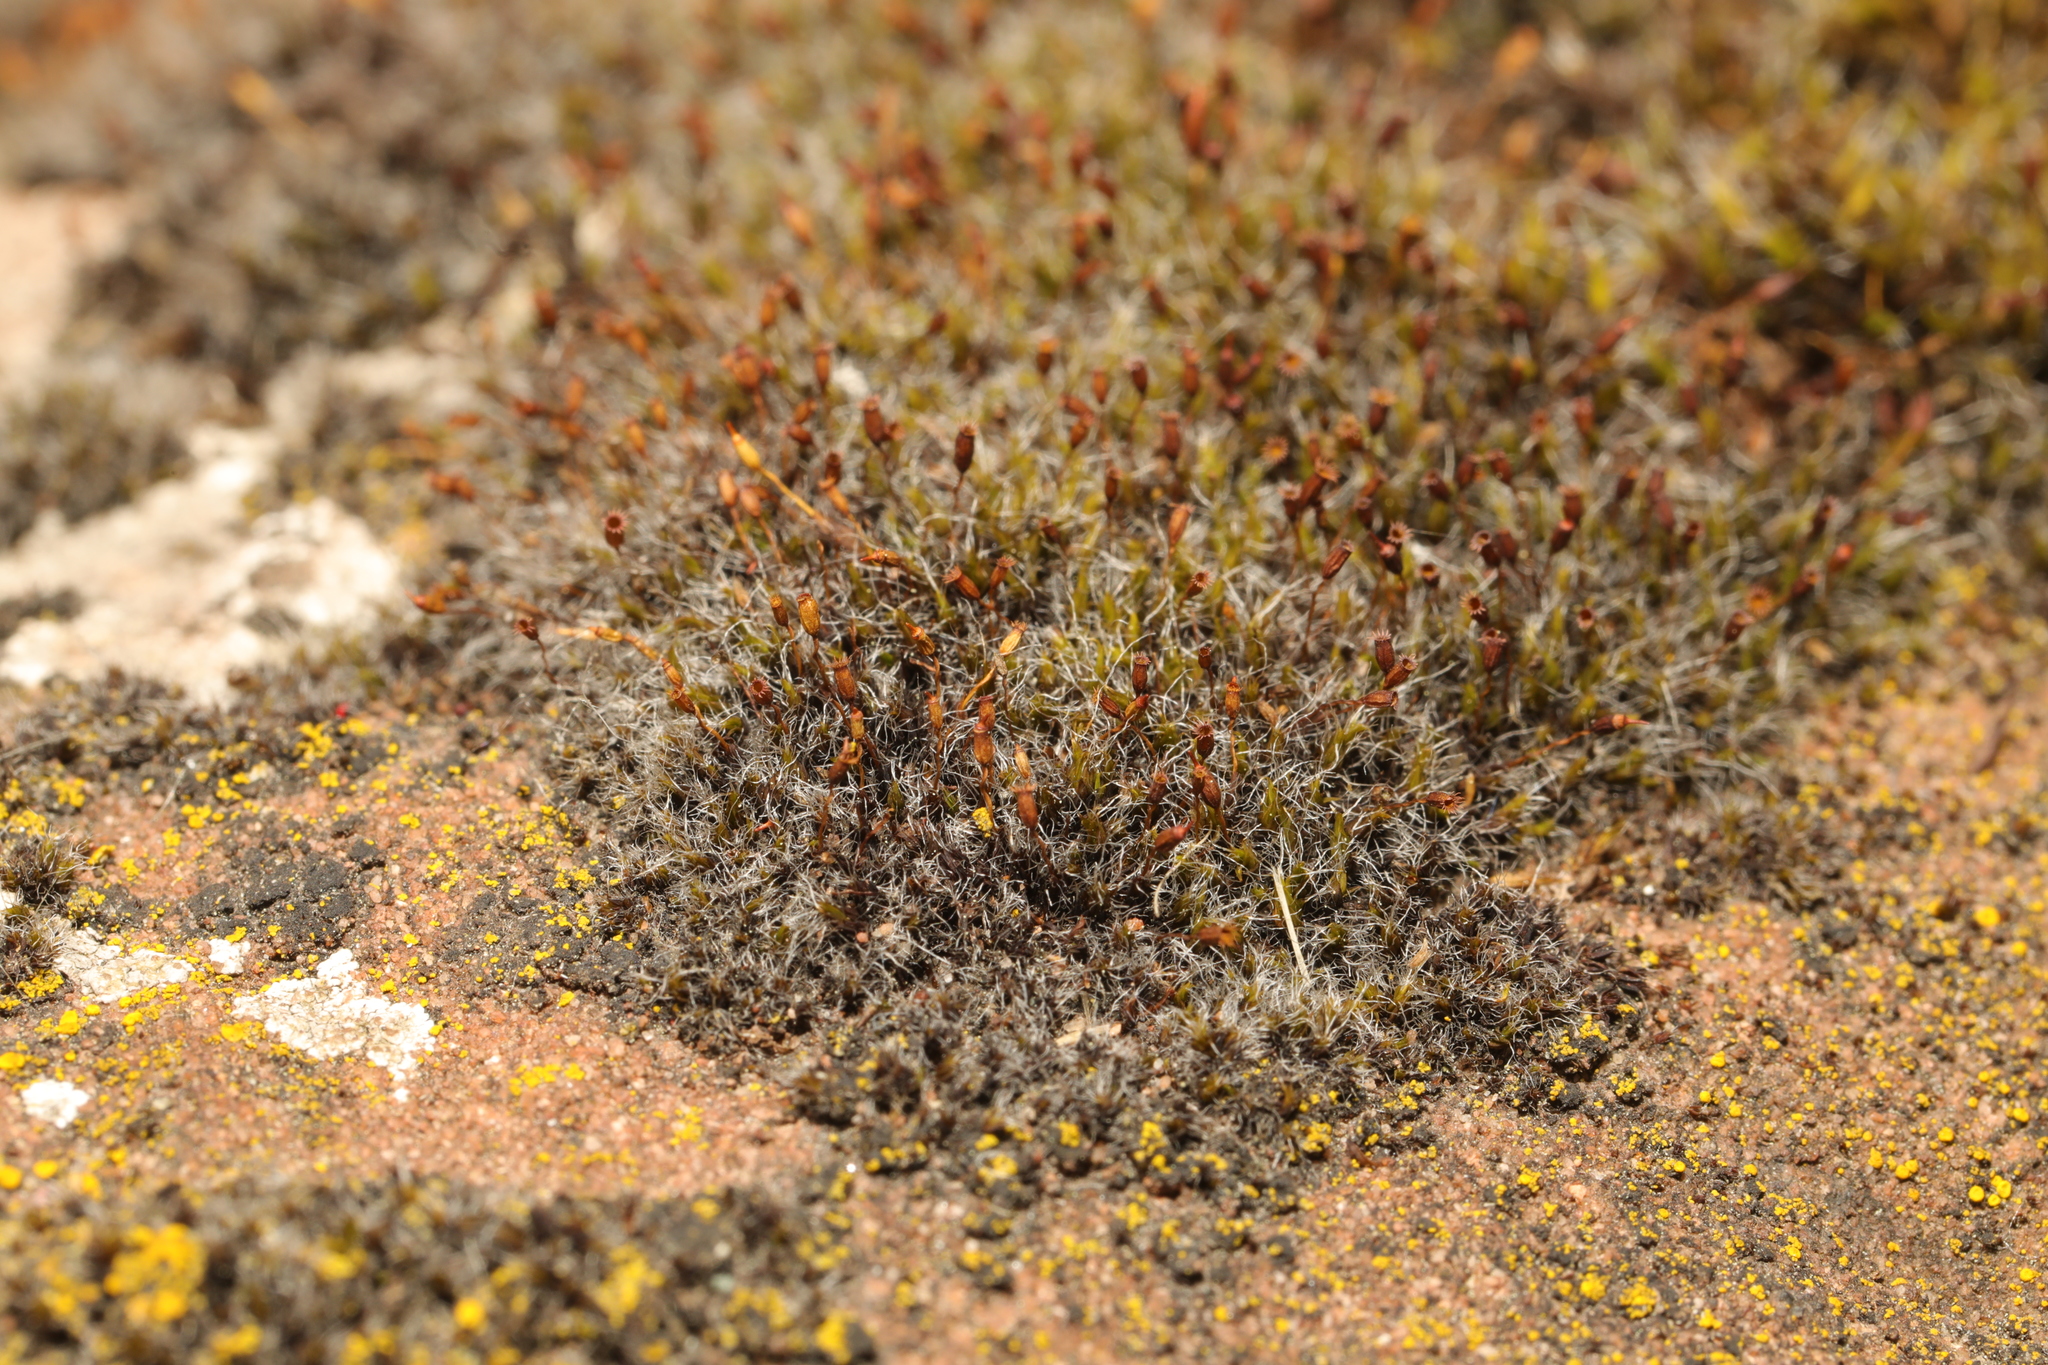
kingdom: Plantae
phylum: Bryophyta
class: Bryopsida
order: Grimmiales
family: Grimmiaceae
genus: Grimmia
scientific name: Grimmia pulvinata
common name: Grey-cushioned grimmia
